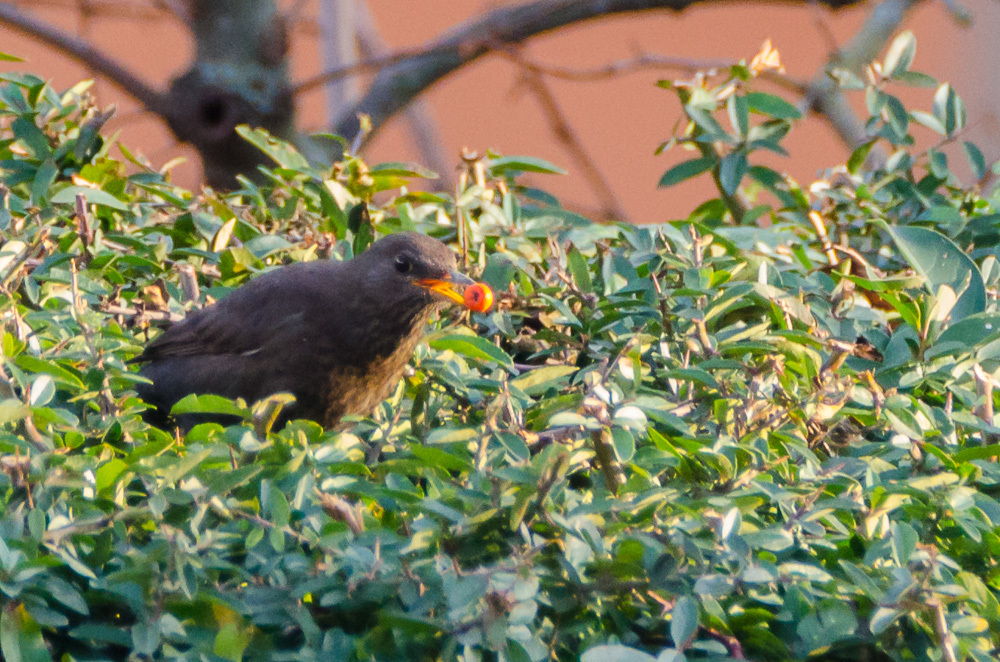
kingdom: Animalia
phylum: Chordata
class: Aves
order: Passeriformes
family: Turdidae
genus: Turdus
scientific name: Turdus merula
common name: Common blackbird
